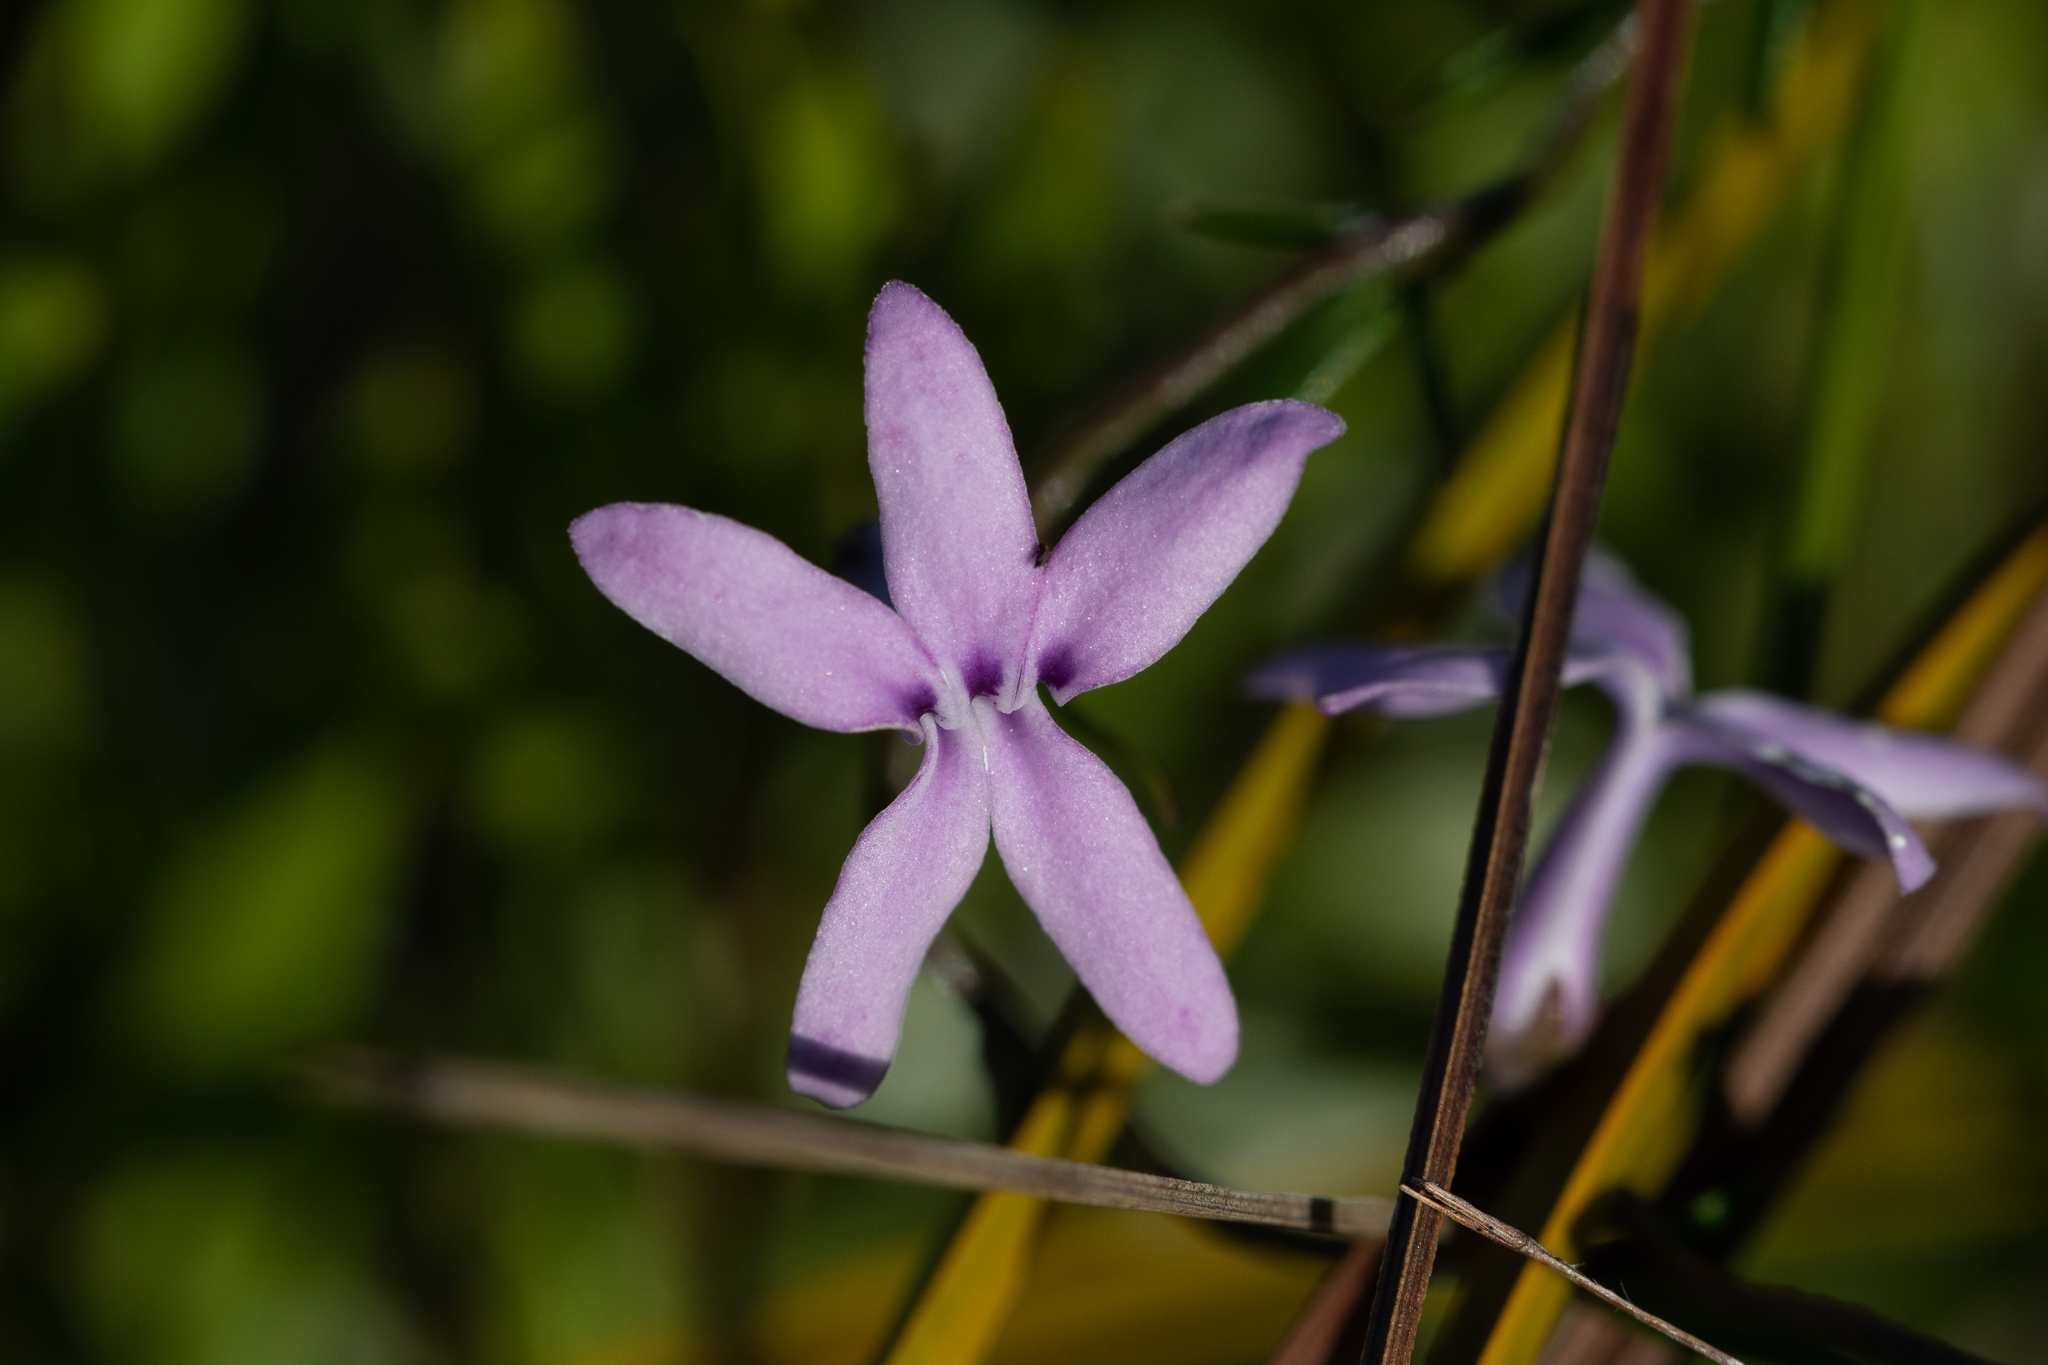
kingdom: Plantae
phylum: Tracheophyta
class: Magnoliopsida
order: Asterales
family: Campanulaceae
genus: Cyphia
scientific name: Cyphia volubilis
